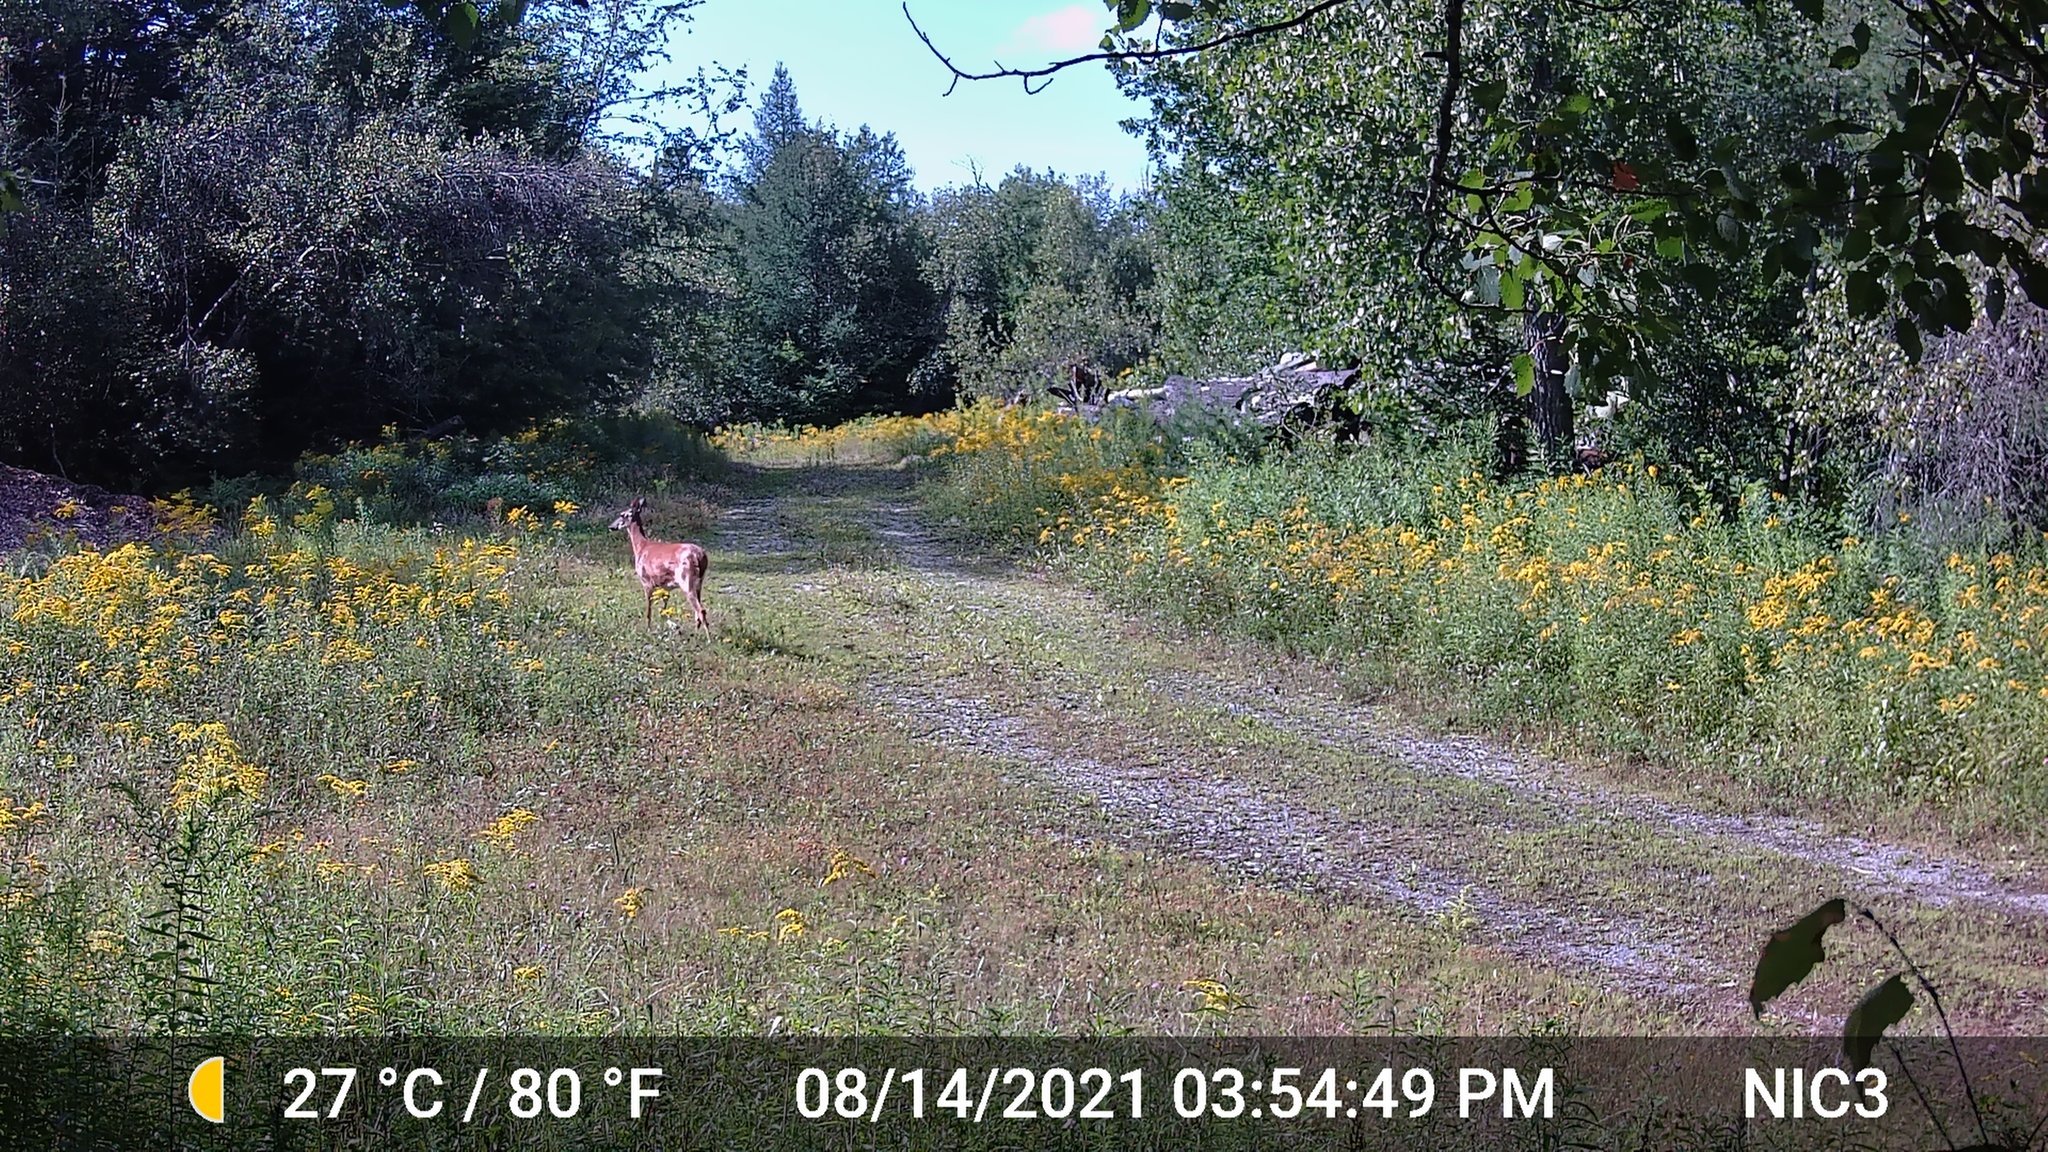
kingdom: Animalia
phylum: Chordata
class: Mammalia
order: Artiodactyla
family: Cervidae
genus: Odocoileus
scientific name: Odocoileus virginianus
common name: White-tailed deer
